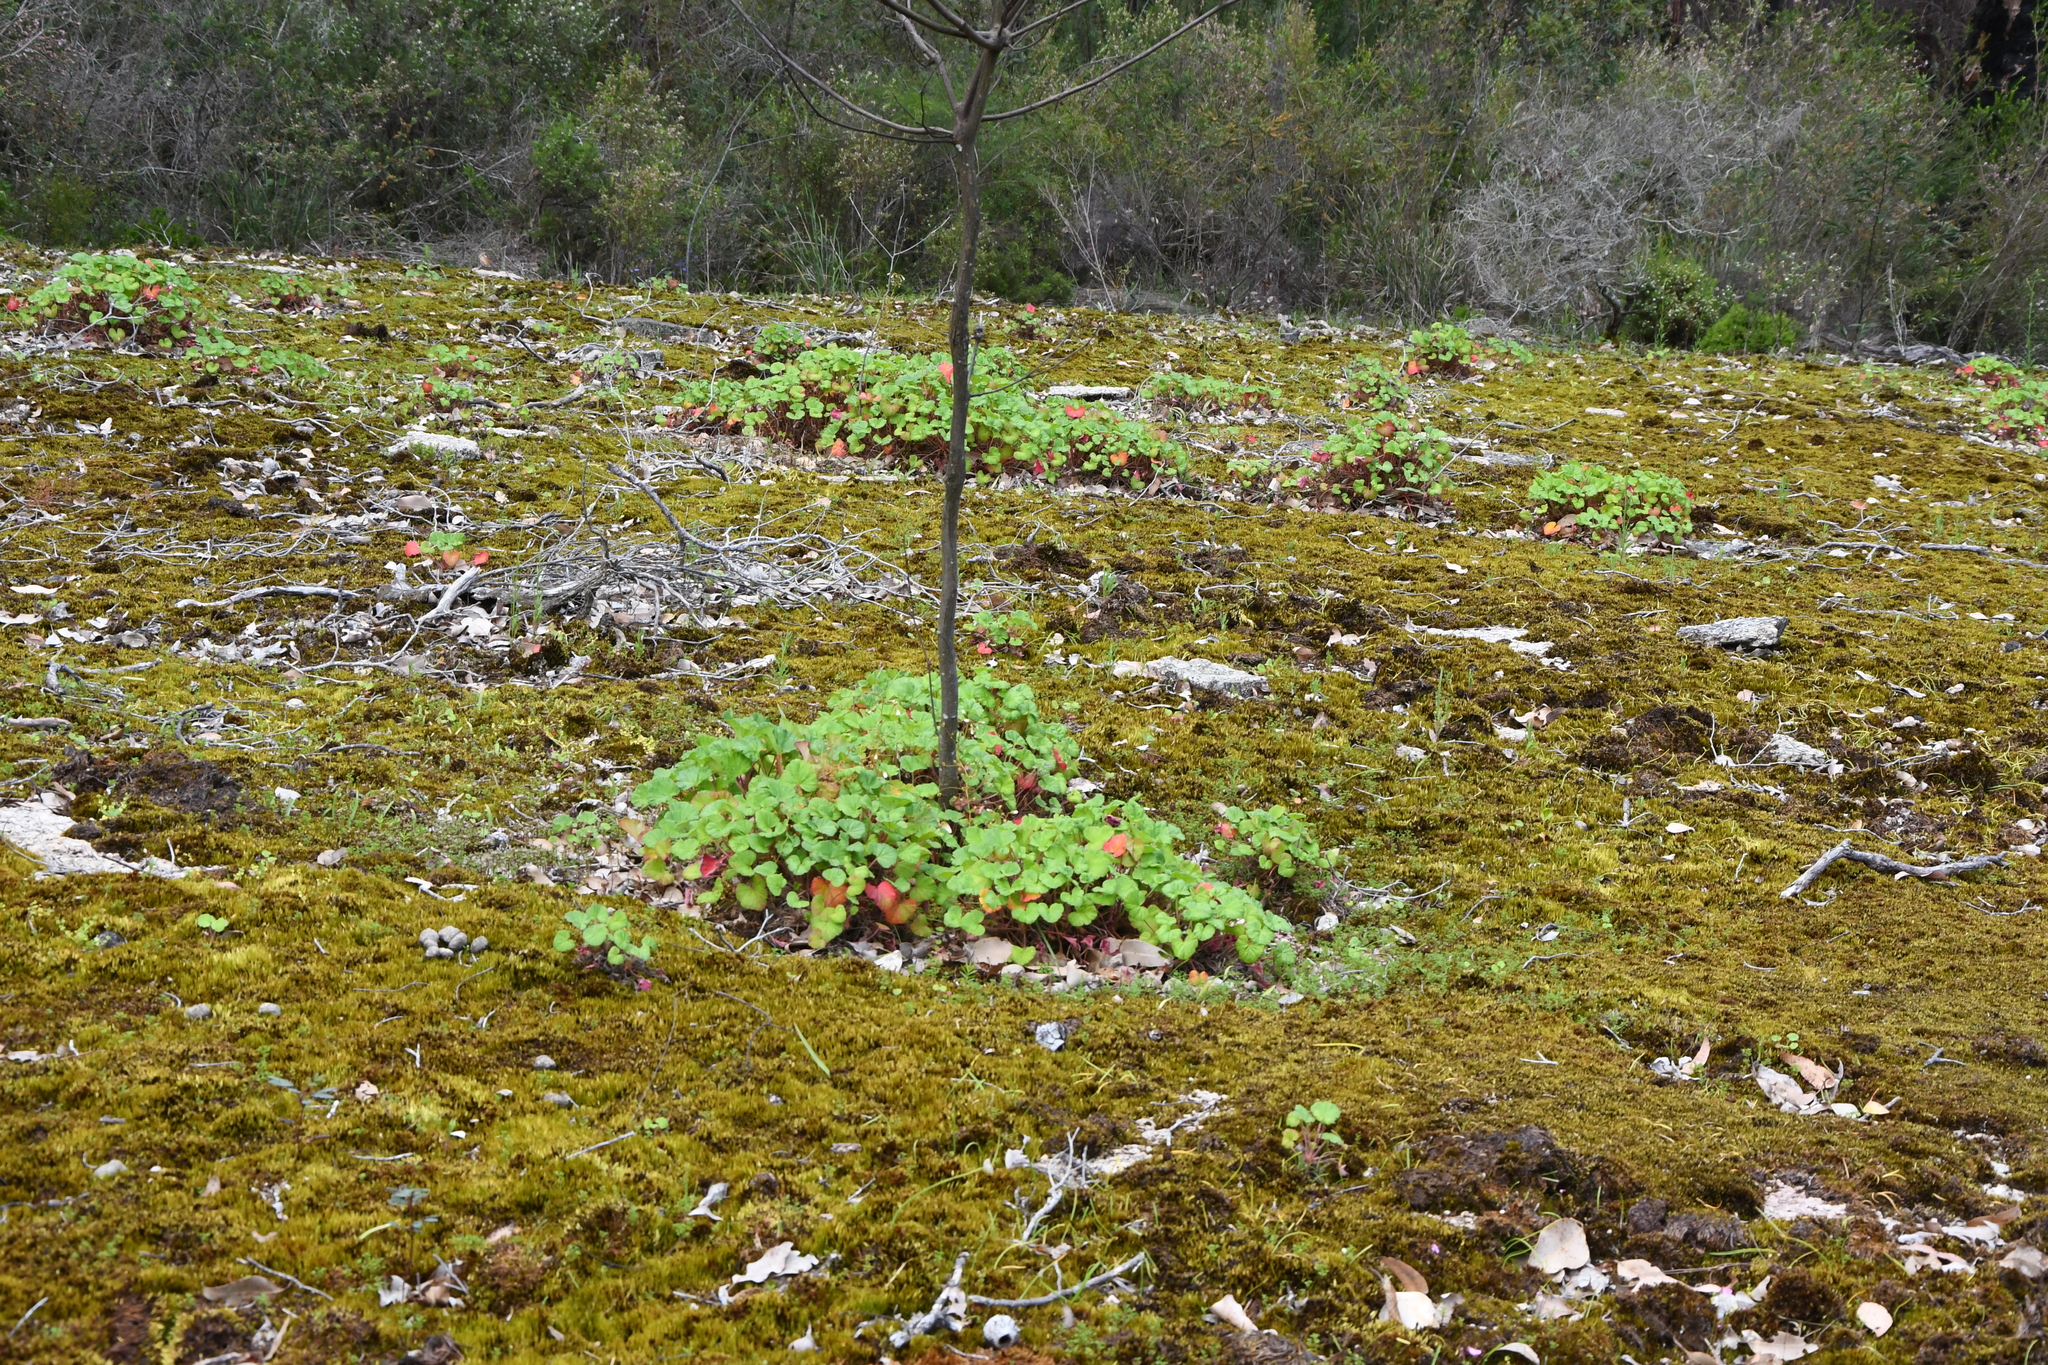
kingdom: Plantae
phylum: Tracheophyta
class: Magnoliopsida
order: Geraniales
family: Geraniaceae
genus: Pelargonium
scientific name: Pelargonium drummondii
